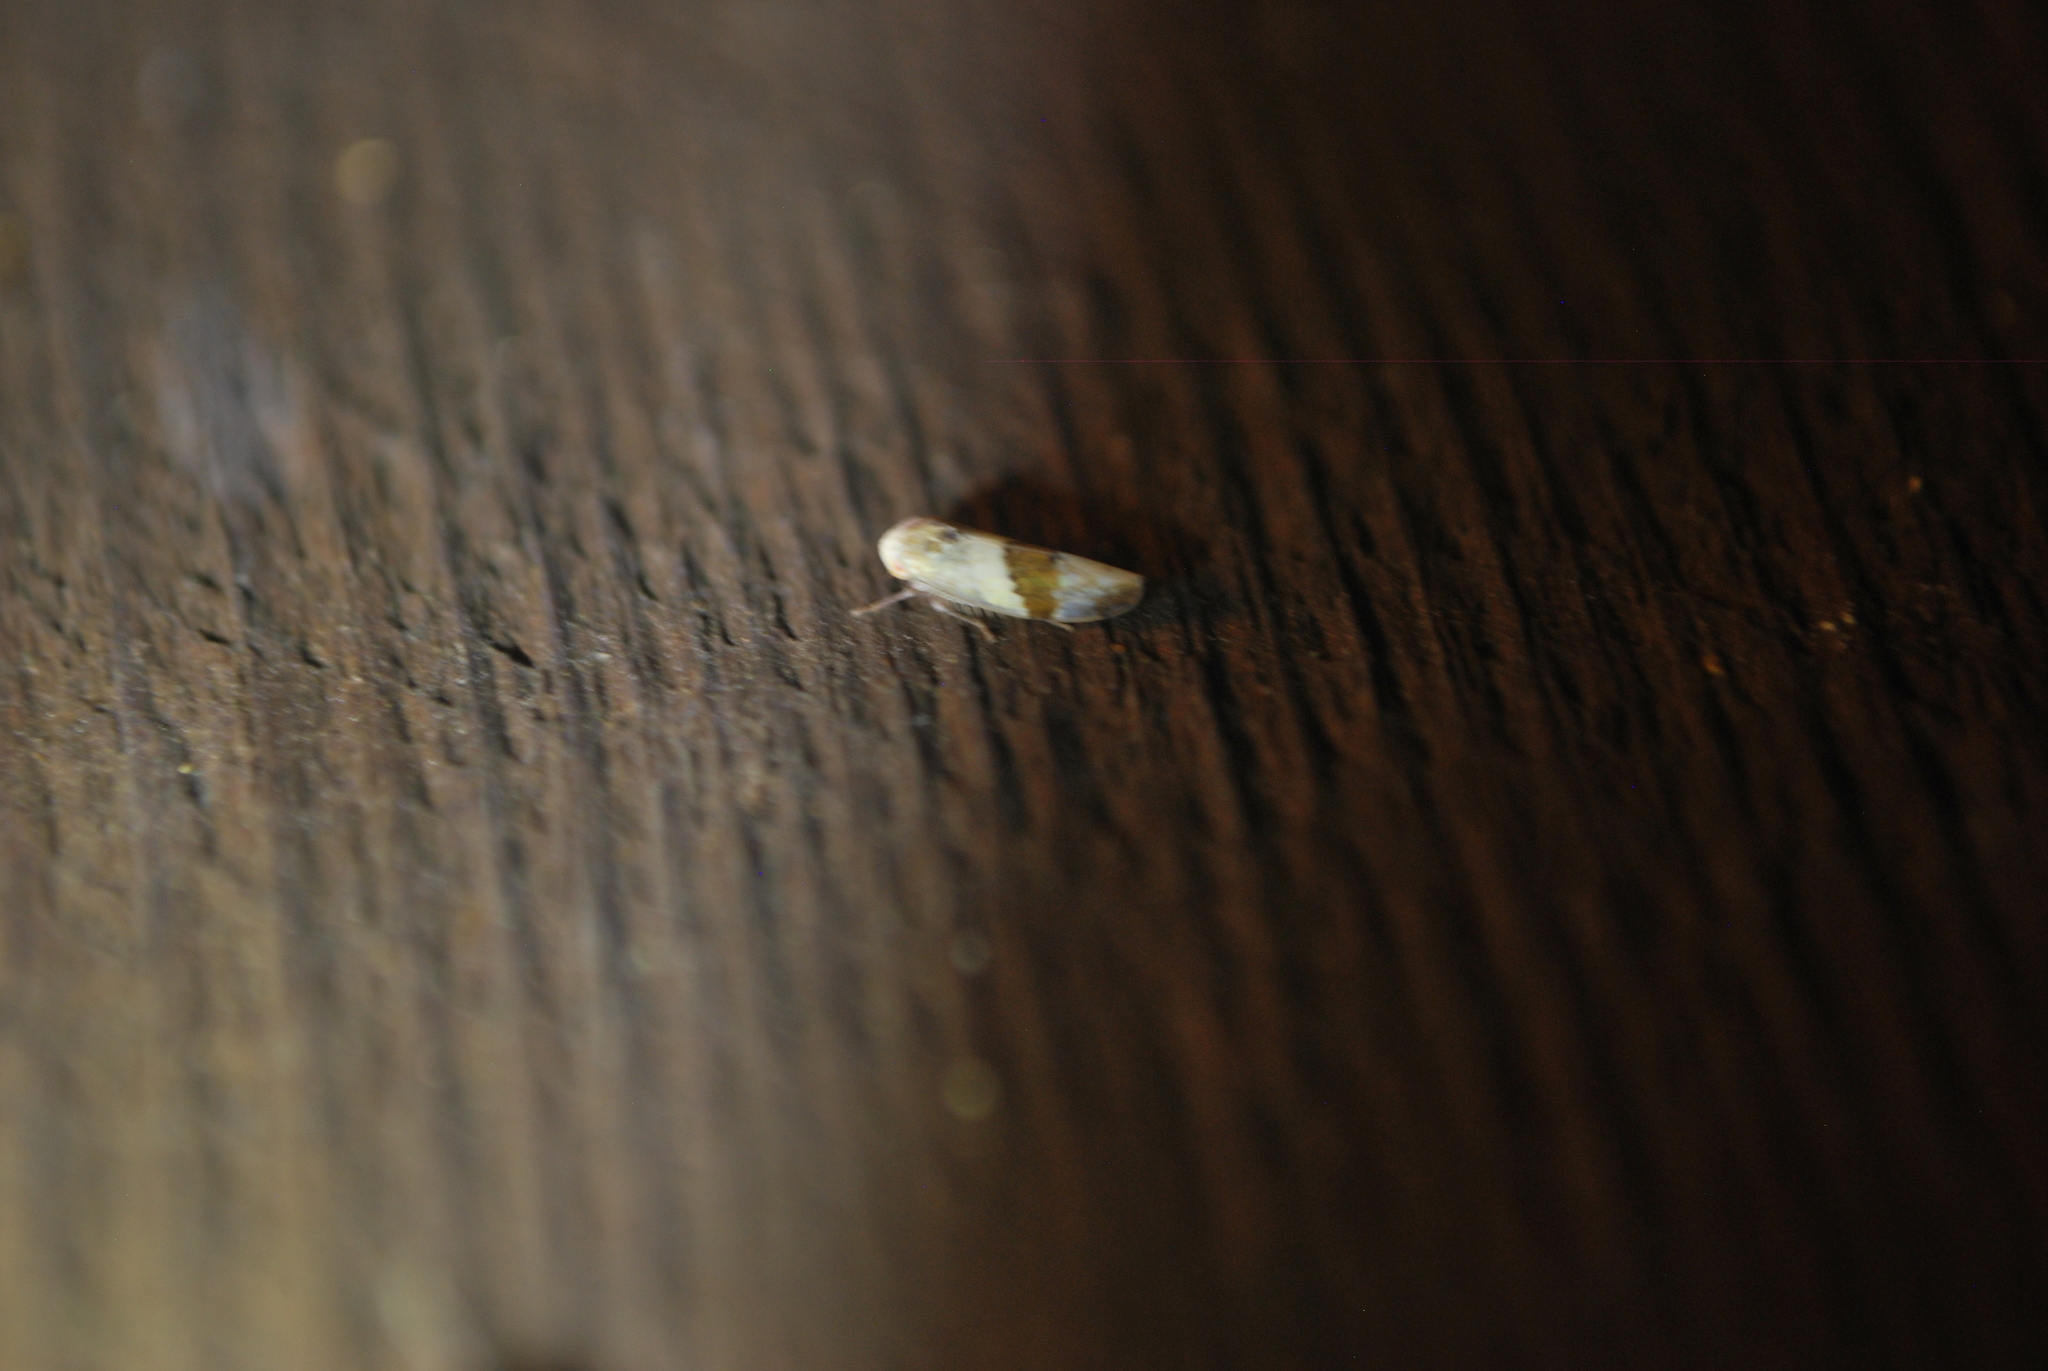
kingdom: Animalia
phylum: Arthropoda
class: Insecta
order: Hemiptera
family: Cicadellidae
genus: Norvellina
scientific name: Norvellina seminuda
